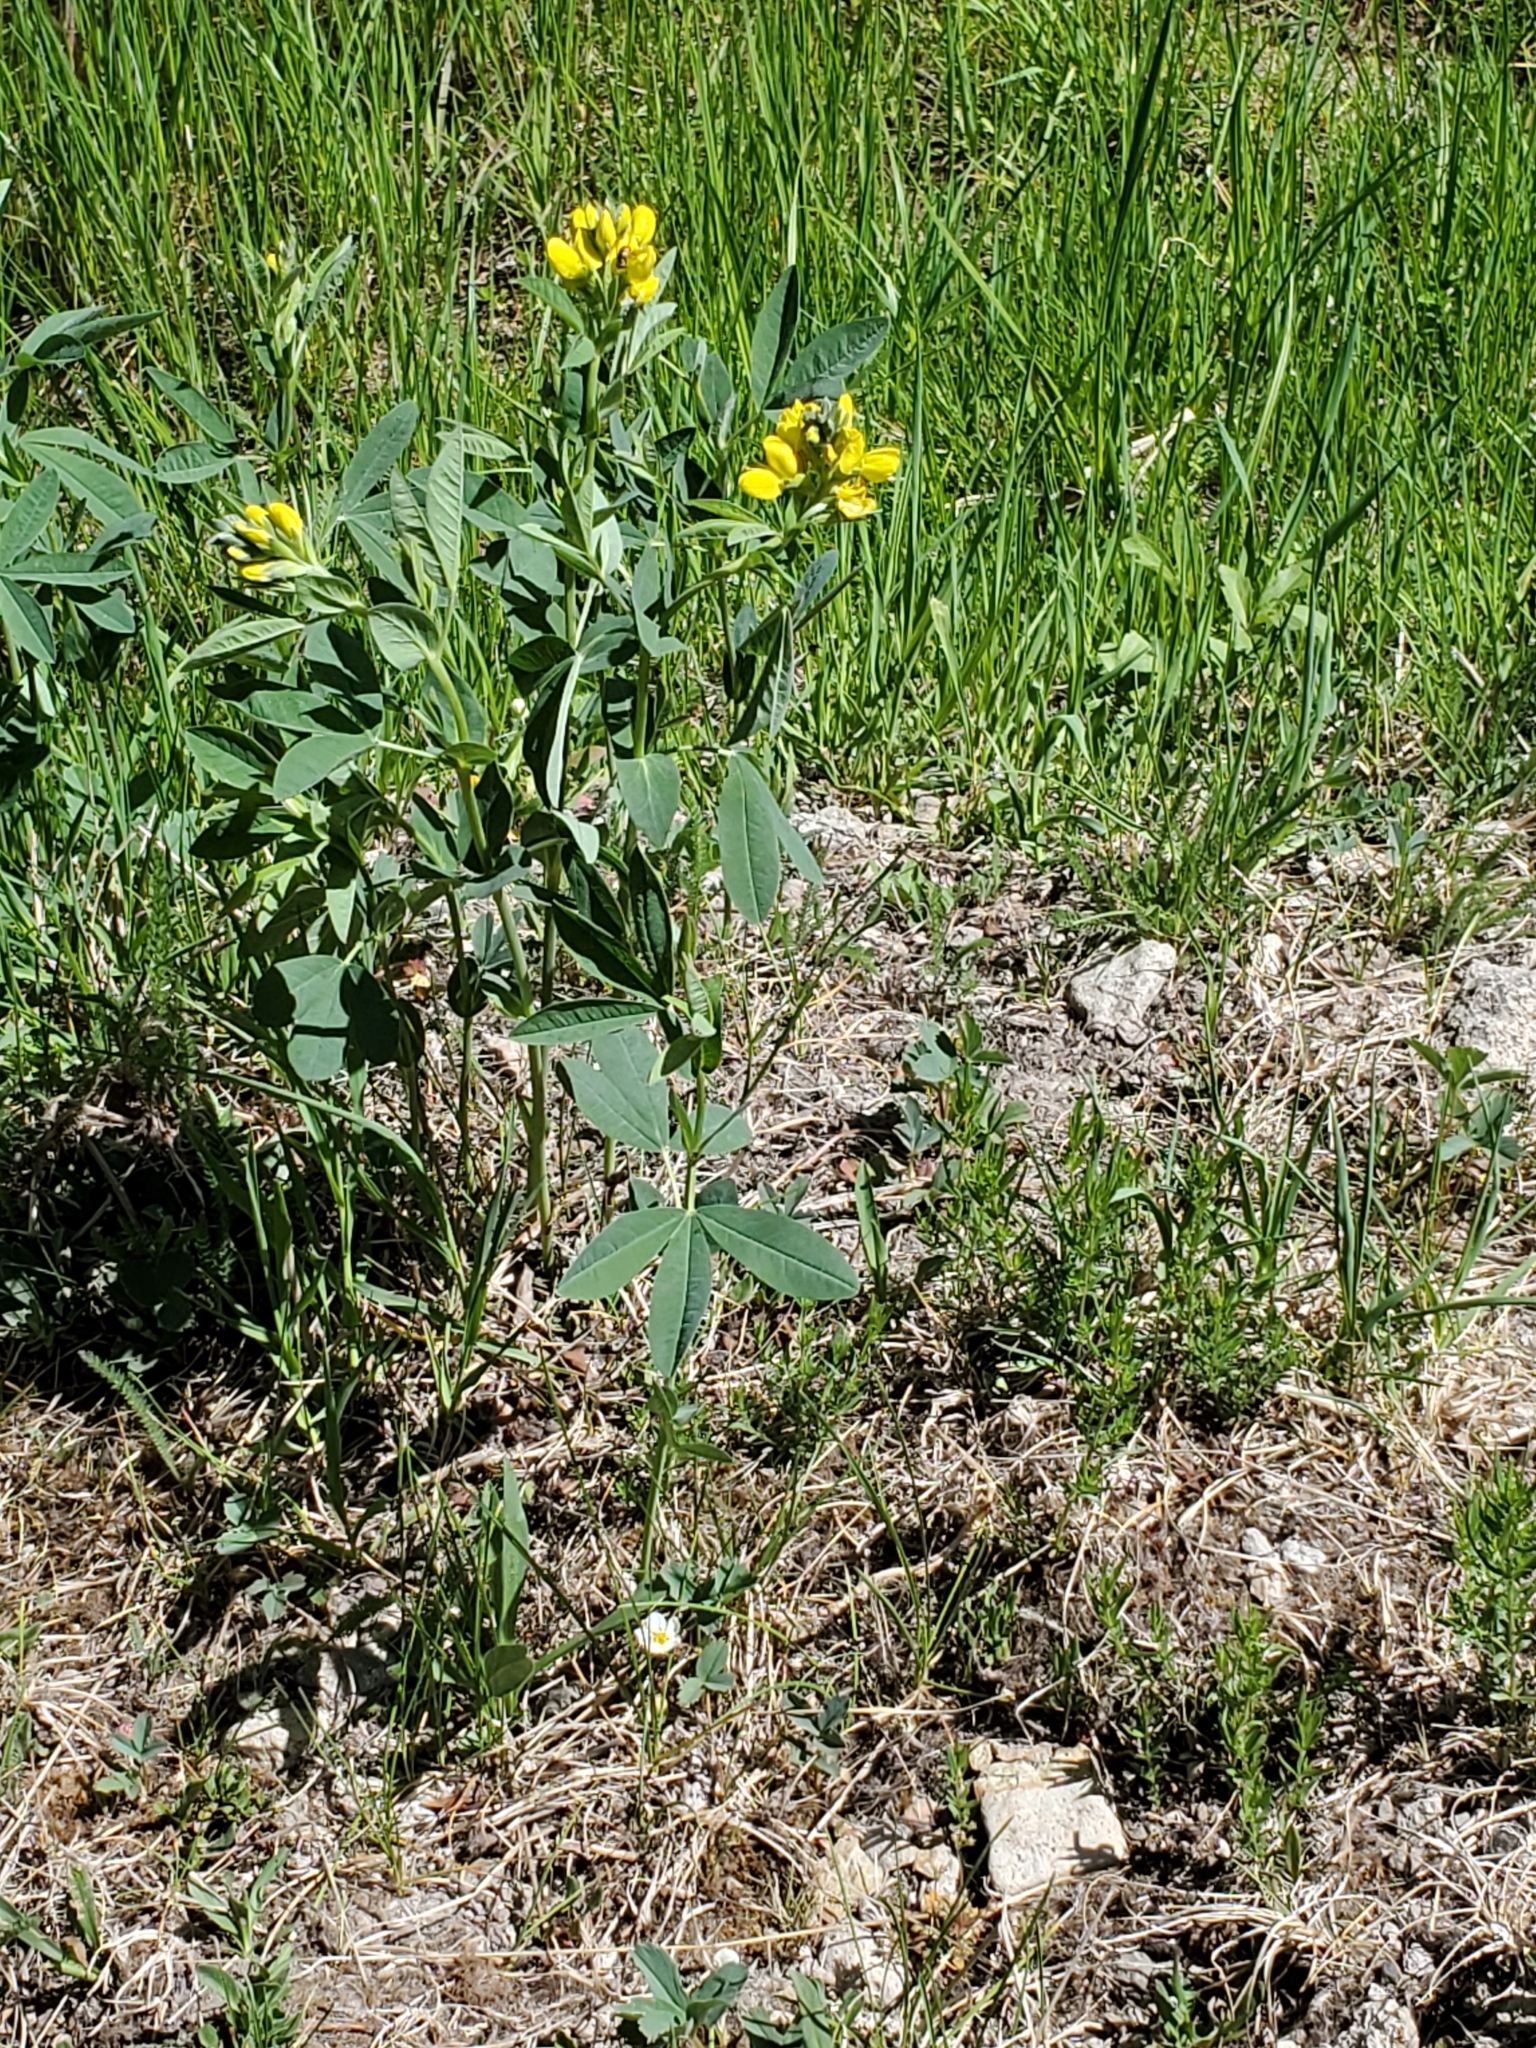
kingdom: Plantae
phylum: Tracheophyta
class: Magnoliopsida
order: Fabales
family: Fabaceae
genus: Thermopsis
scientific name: Thermopsis montana
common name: False lupin
